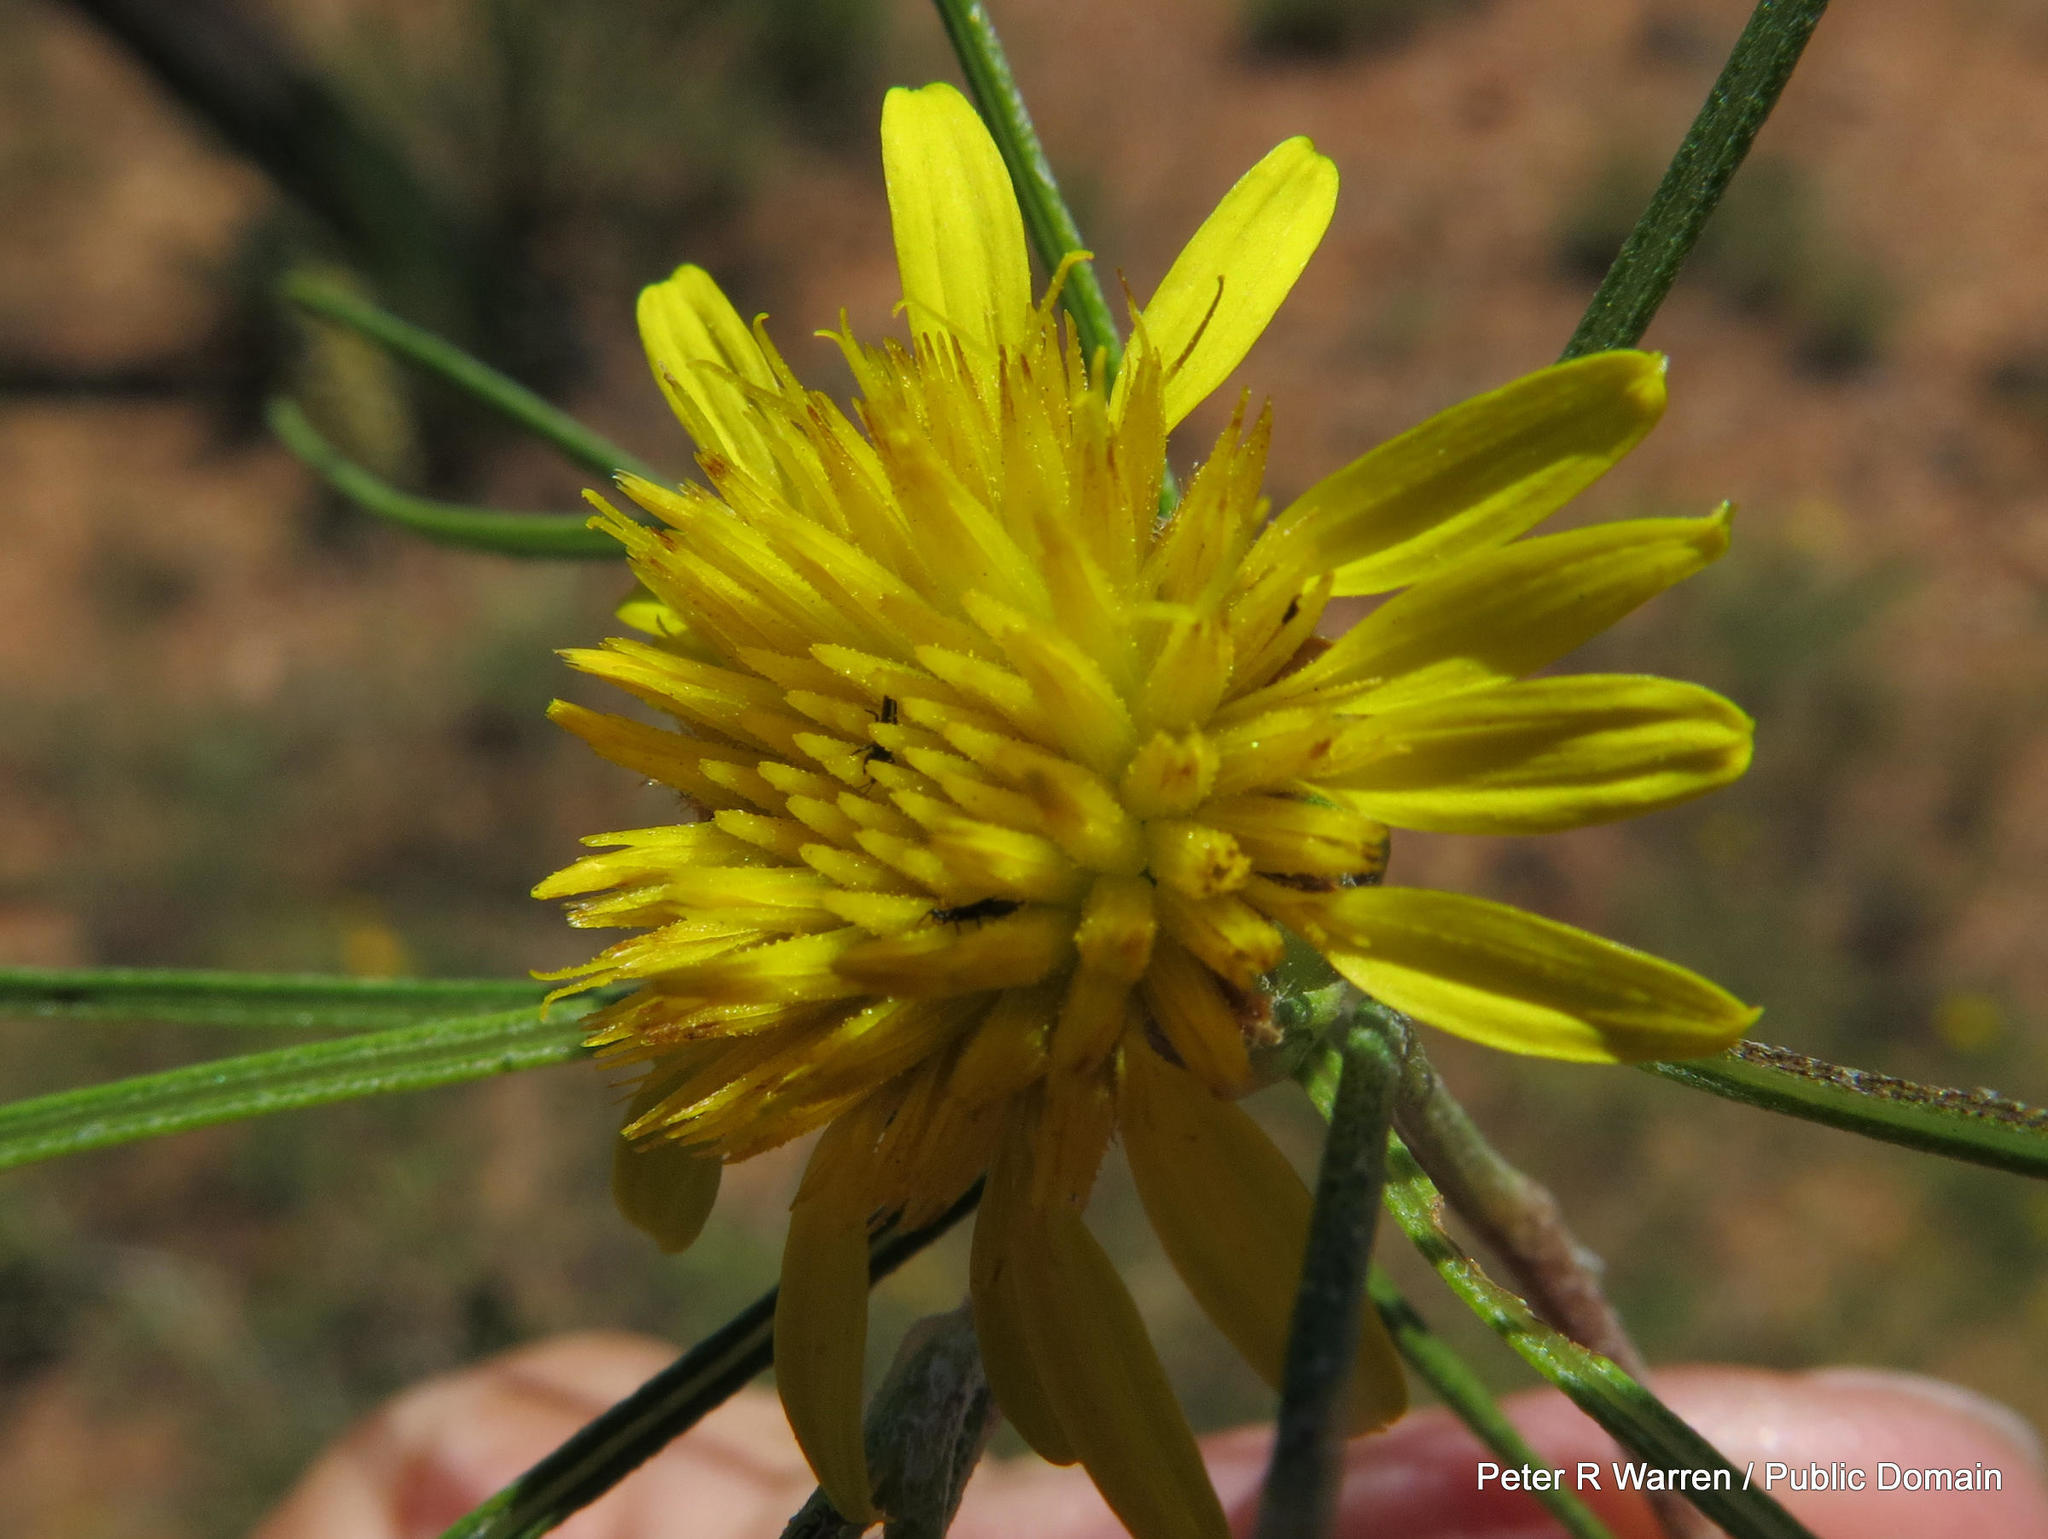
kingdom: Plantae
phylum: Tracheophyta
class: Magnoliopsida
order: Asterales
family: Asteraceae
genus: Geigeria
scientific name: Geigeria burkei
